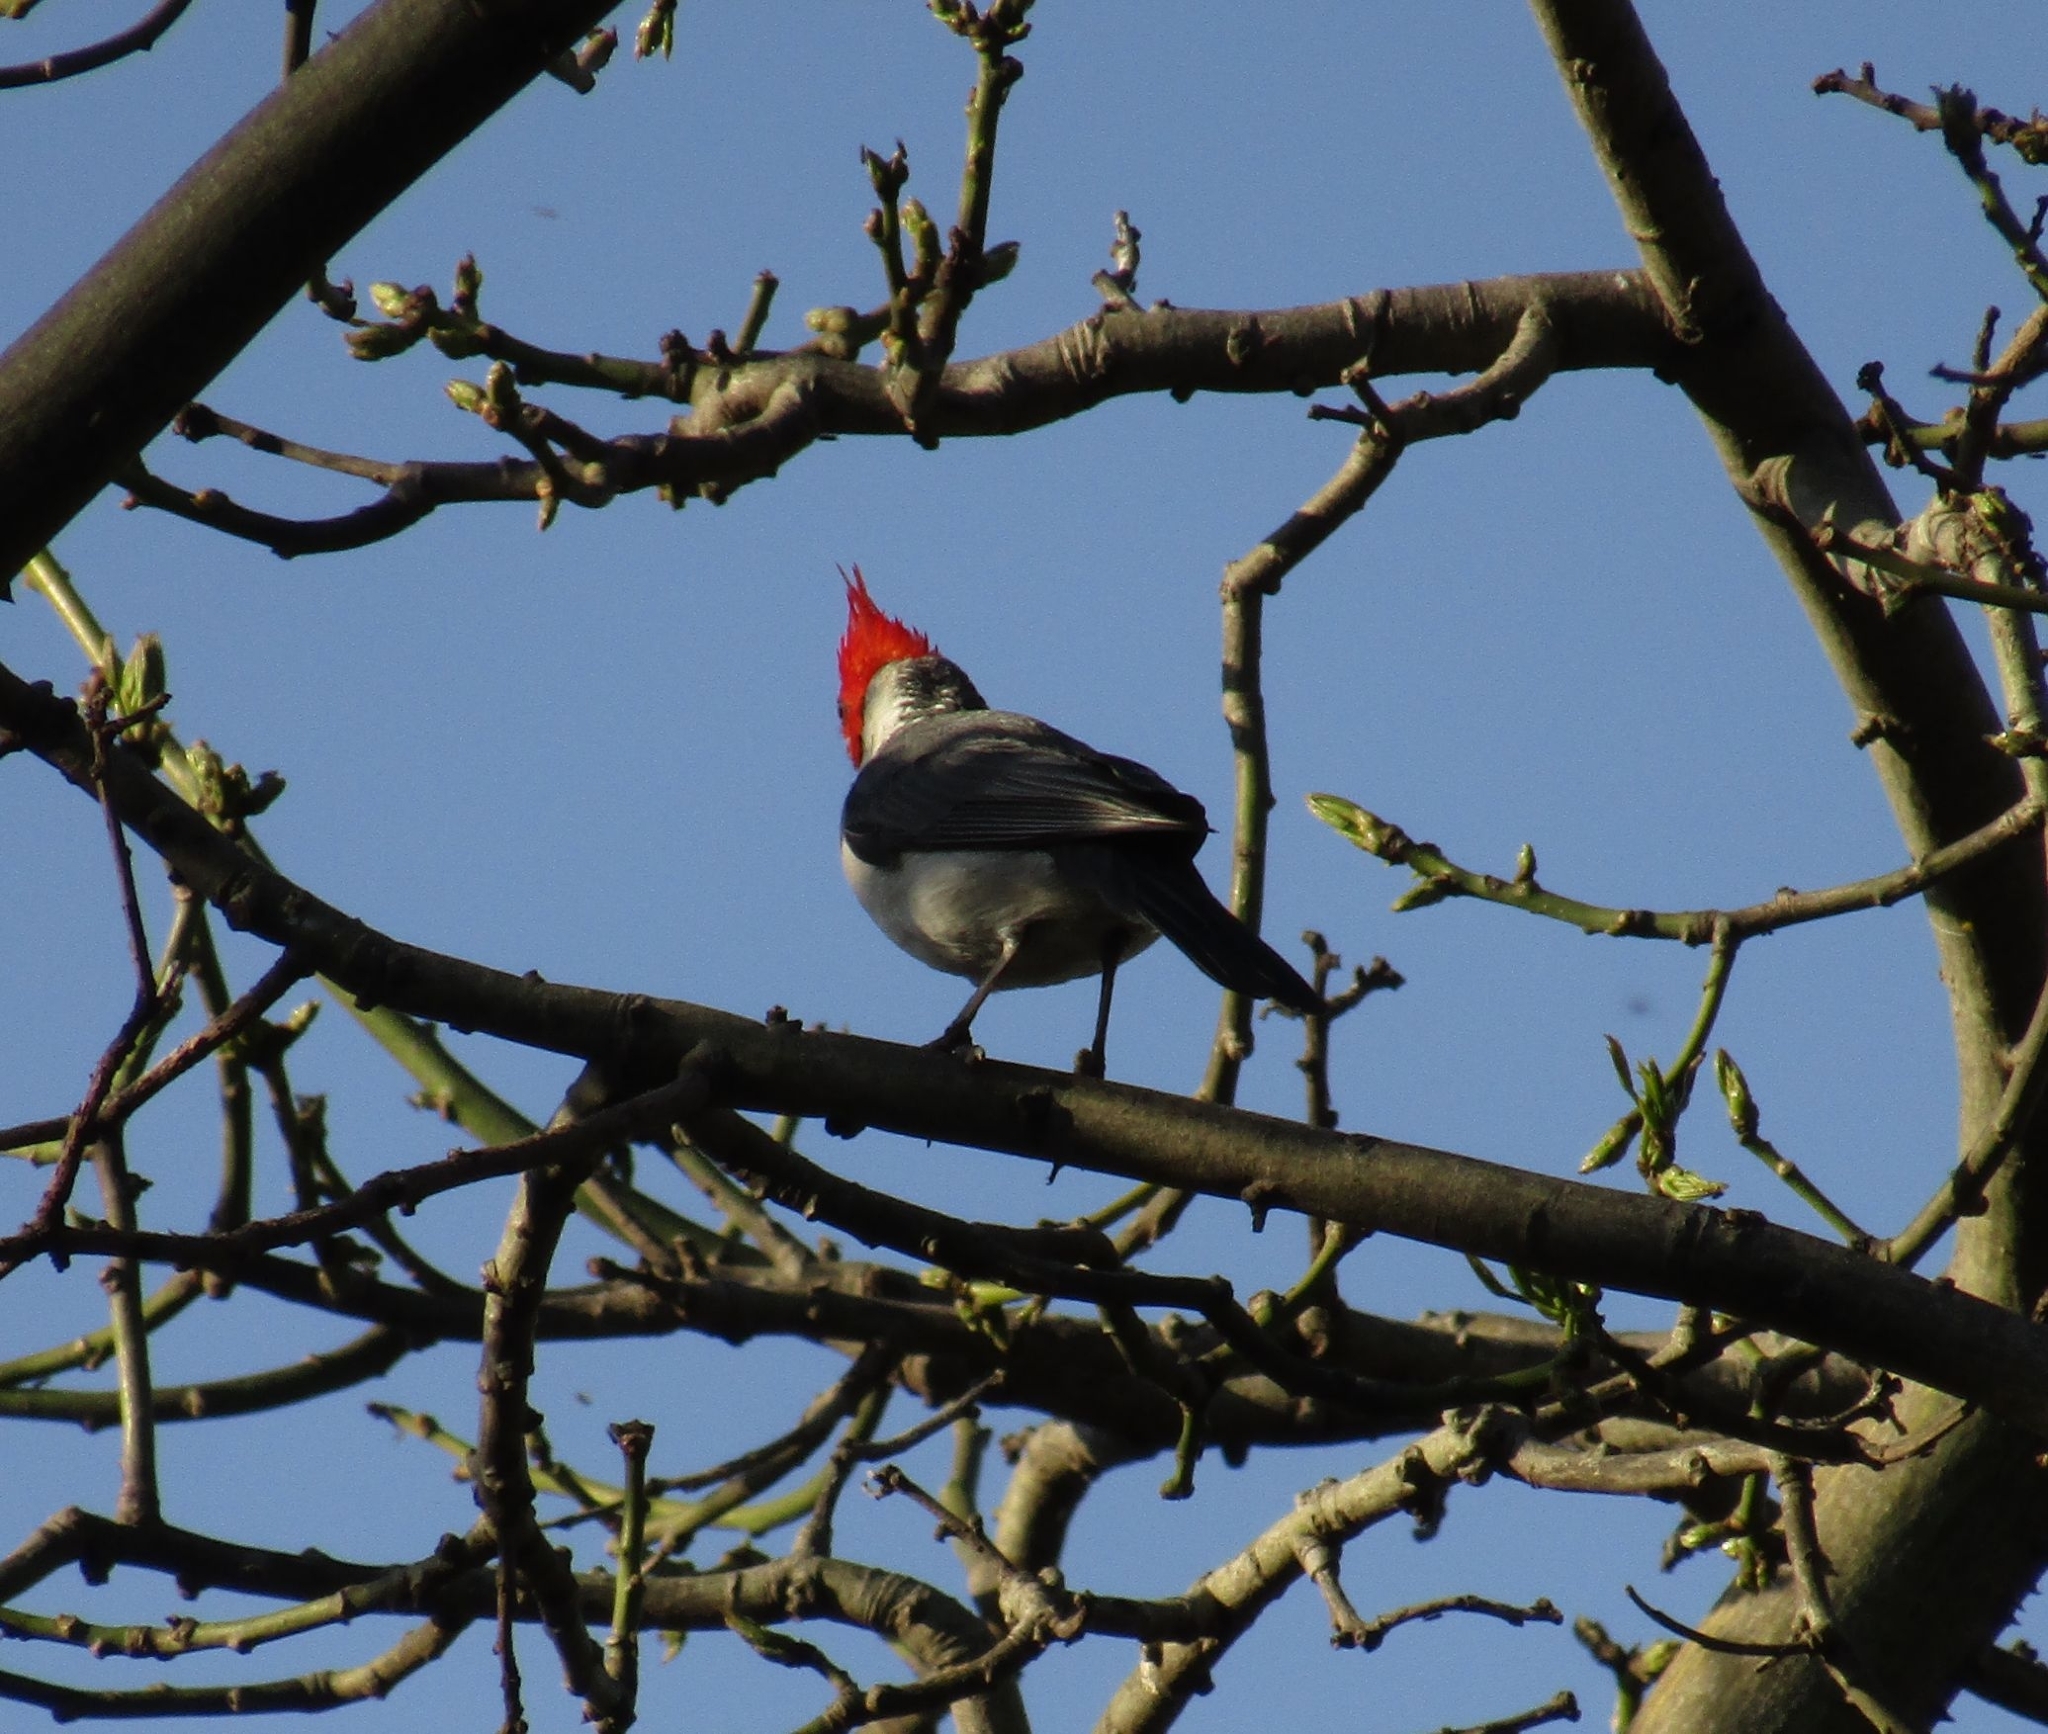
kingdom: Animalia
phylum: Chordata
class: Aves
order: Passeriformes
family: Thraupidae
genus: Paroaria
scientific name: Paroaria coronata
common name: Red-crested cardinal
